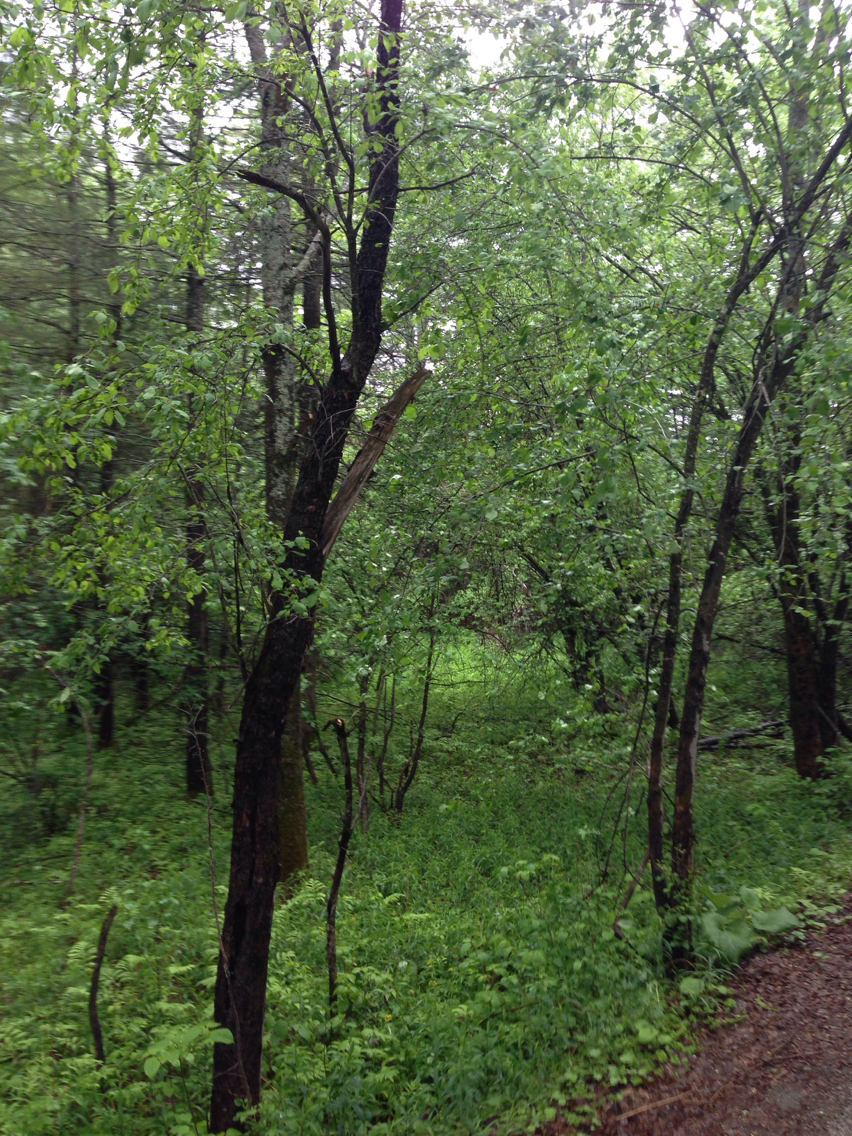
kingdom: Plantae
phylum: Tracheophyta
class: Magnoliopsida
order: Rosales
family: Rosaceae
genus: Malus
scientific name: Malus domestica
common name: Apple
